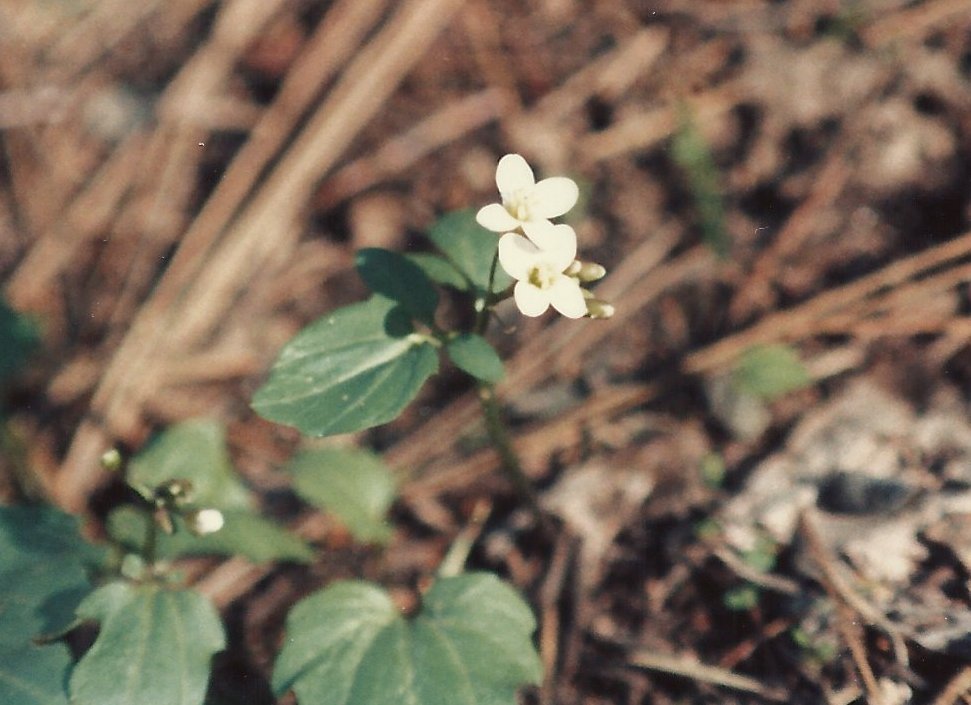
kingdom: Plantae
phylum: Tracheophyta
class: Magnoliopsida
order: Brassicales
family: Brassicaceae
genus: Cardamine
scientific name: Cardamine californica
